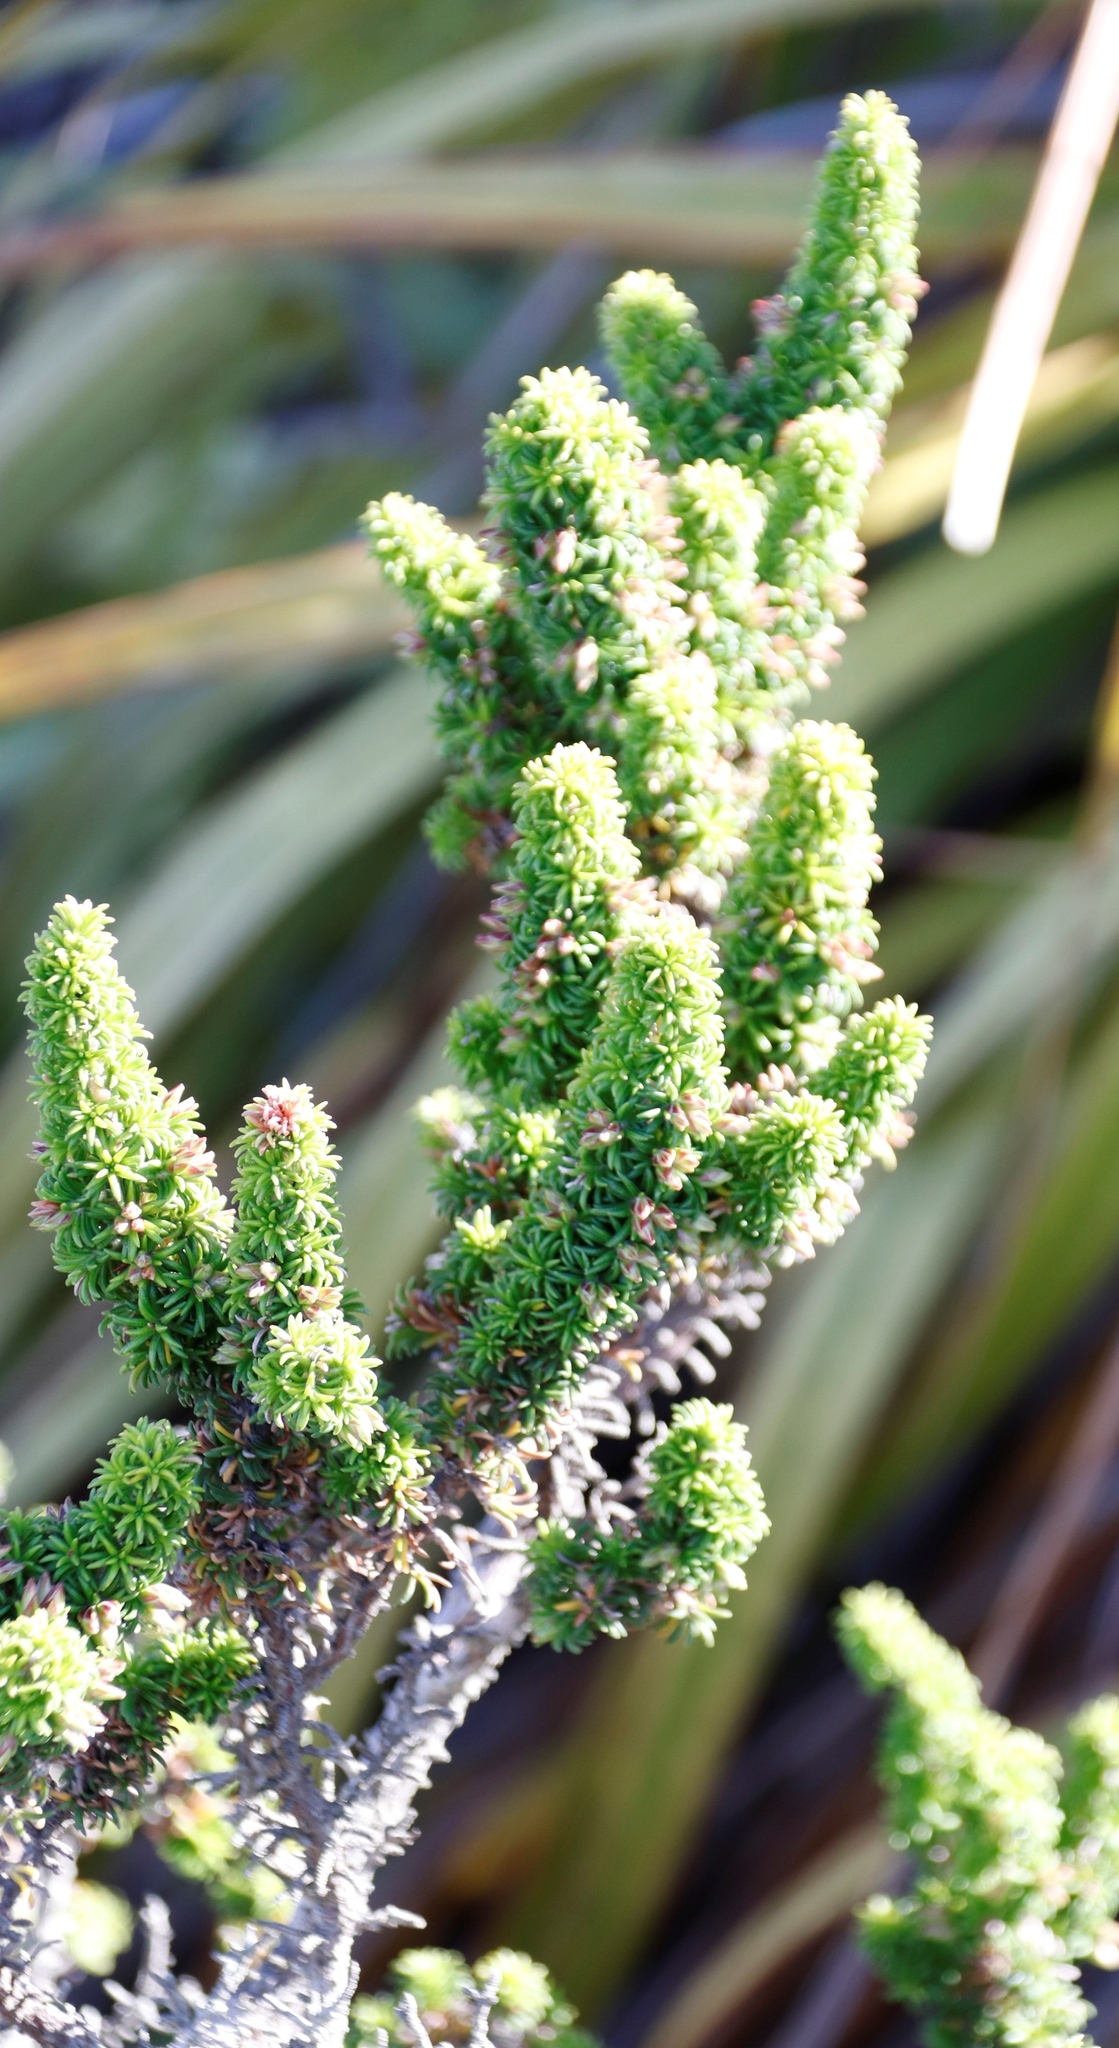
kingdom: Plantae
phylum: Tracheophyta
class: Magnoliopsida
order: Ericales
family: Ericaceae
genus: Erica
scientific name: Erica coccinea
